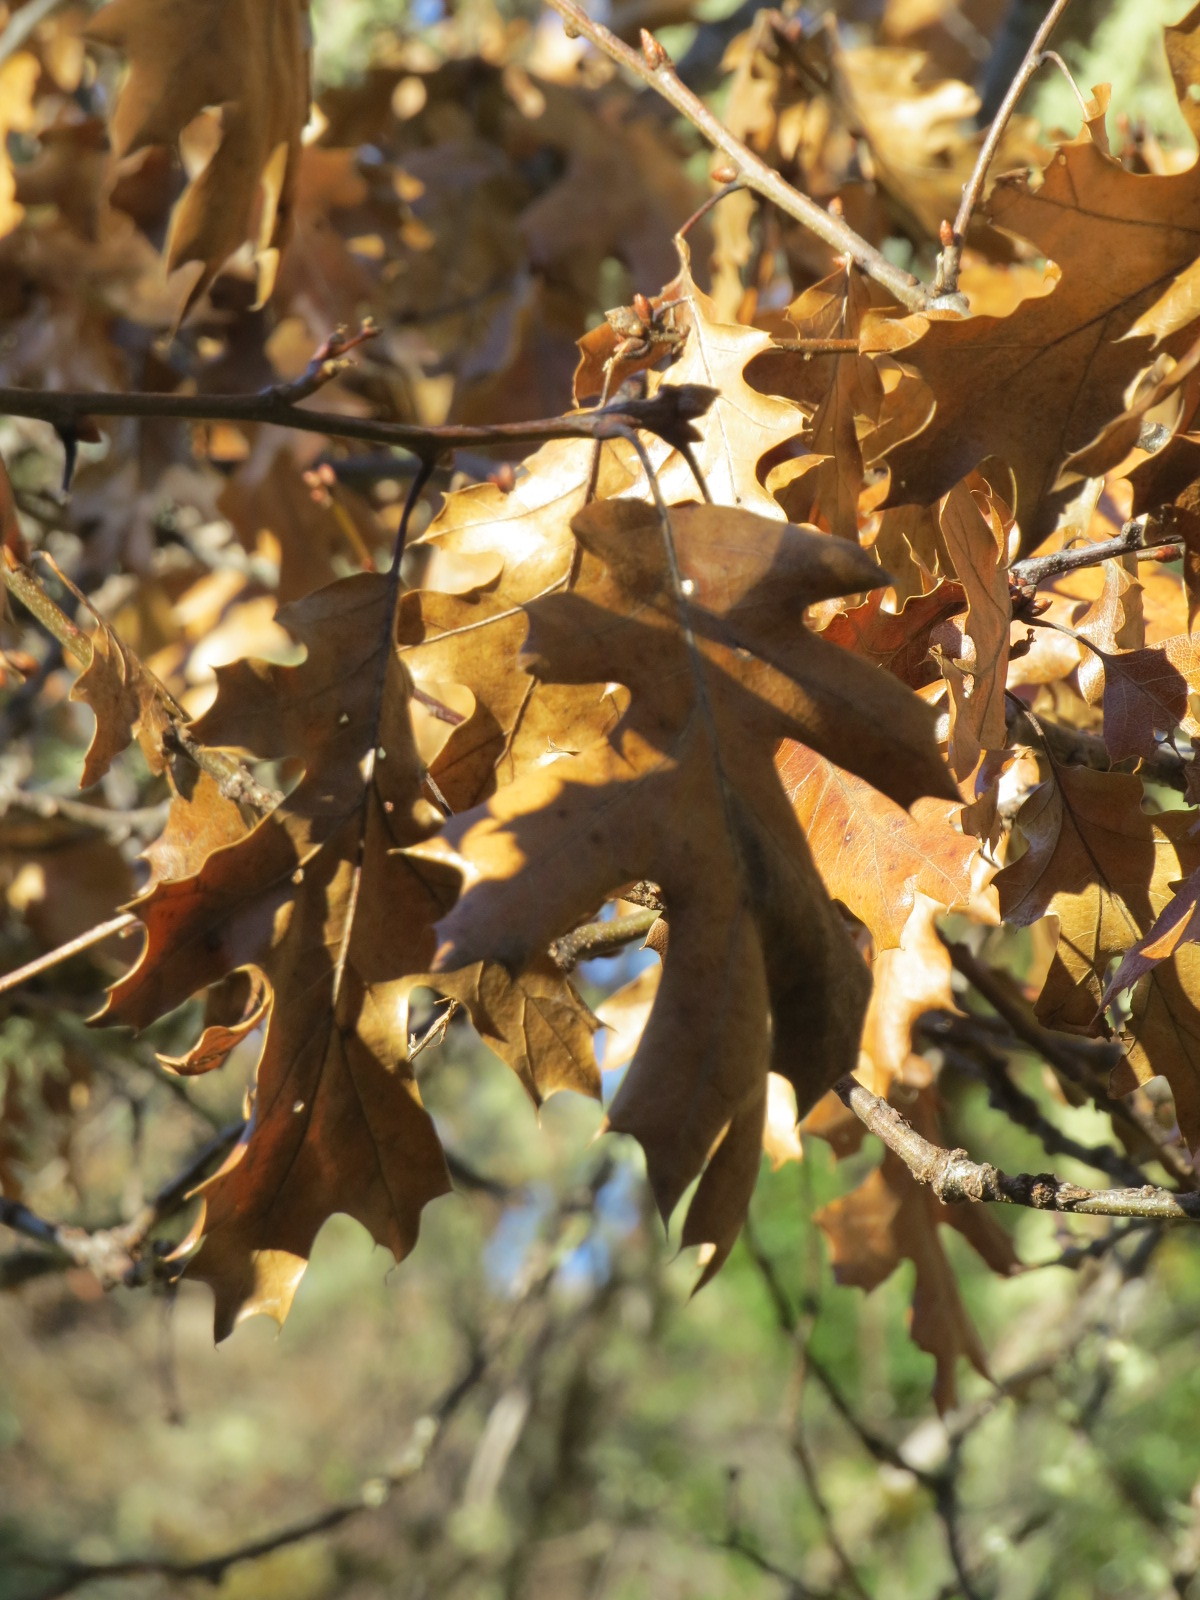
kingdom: Plantae
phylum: Tracheophyta
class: Magnoliopsida
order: Fagales
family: Fagaceae
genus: Quercus
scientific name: Quercus kelloggii
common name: California black oak
